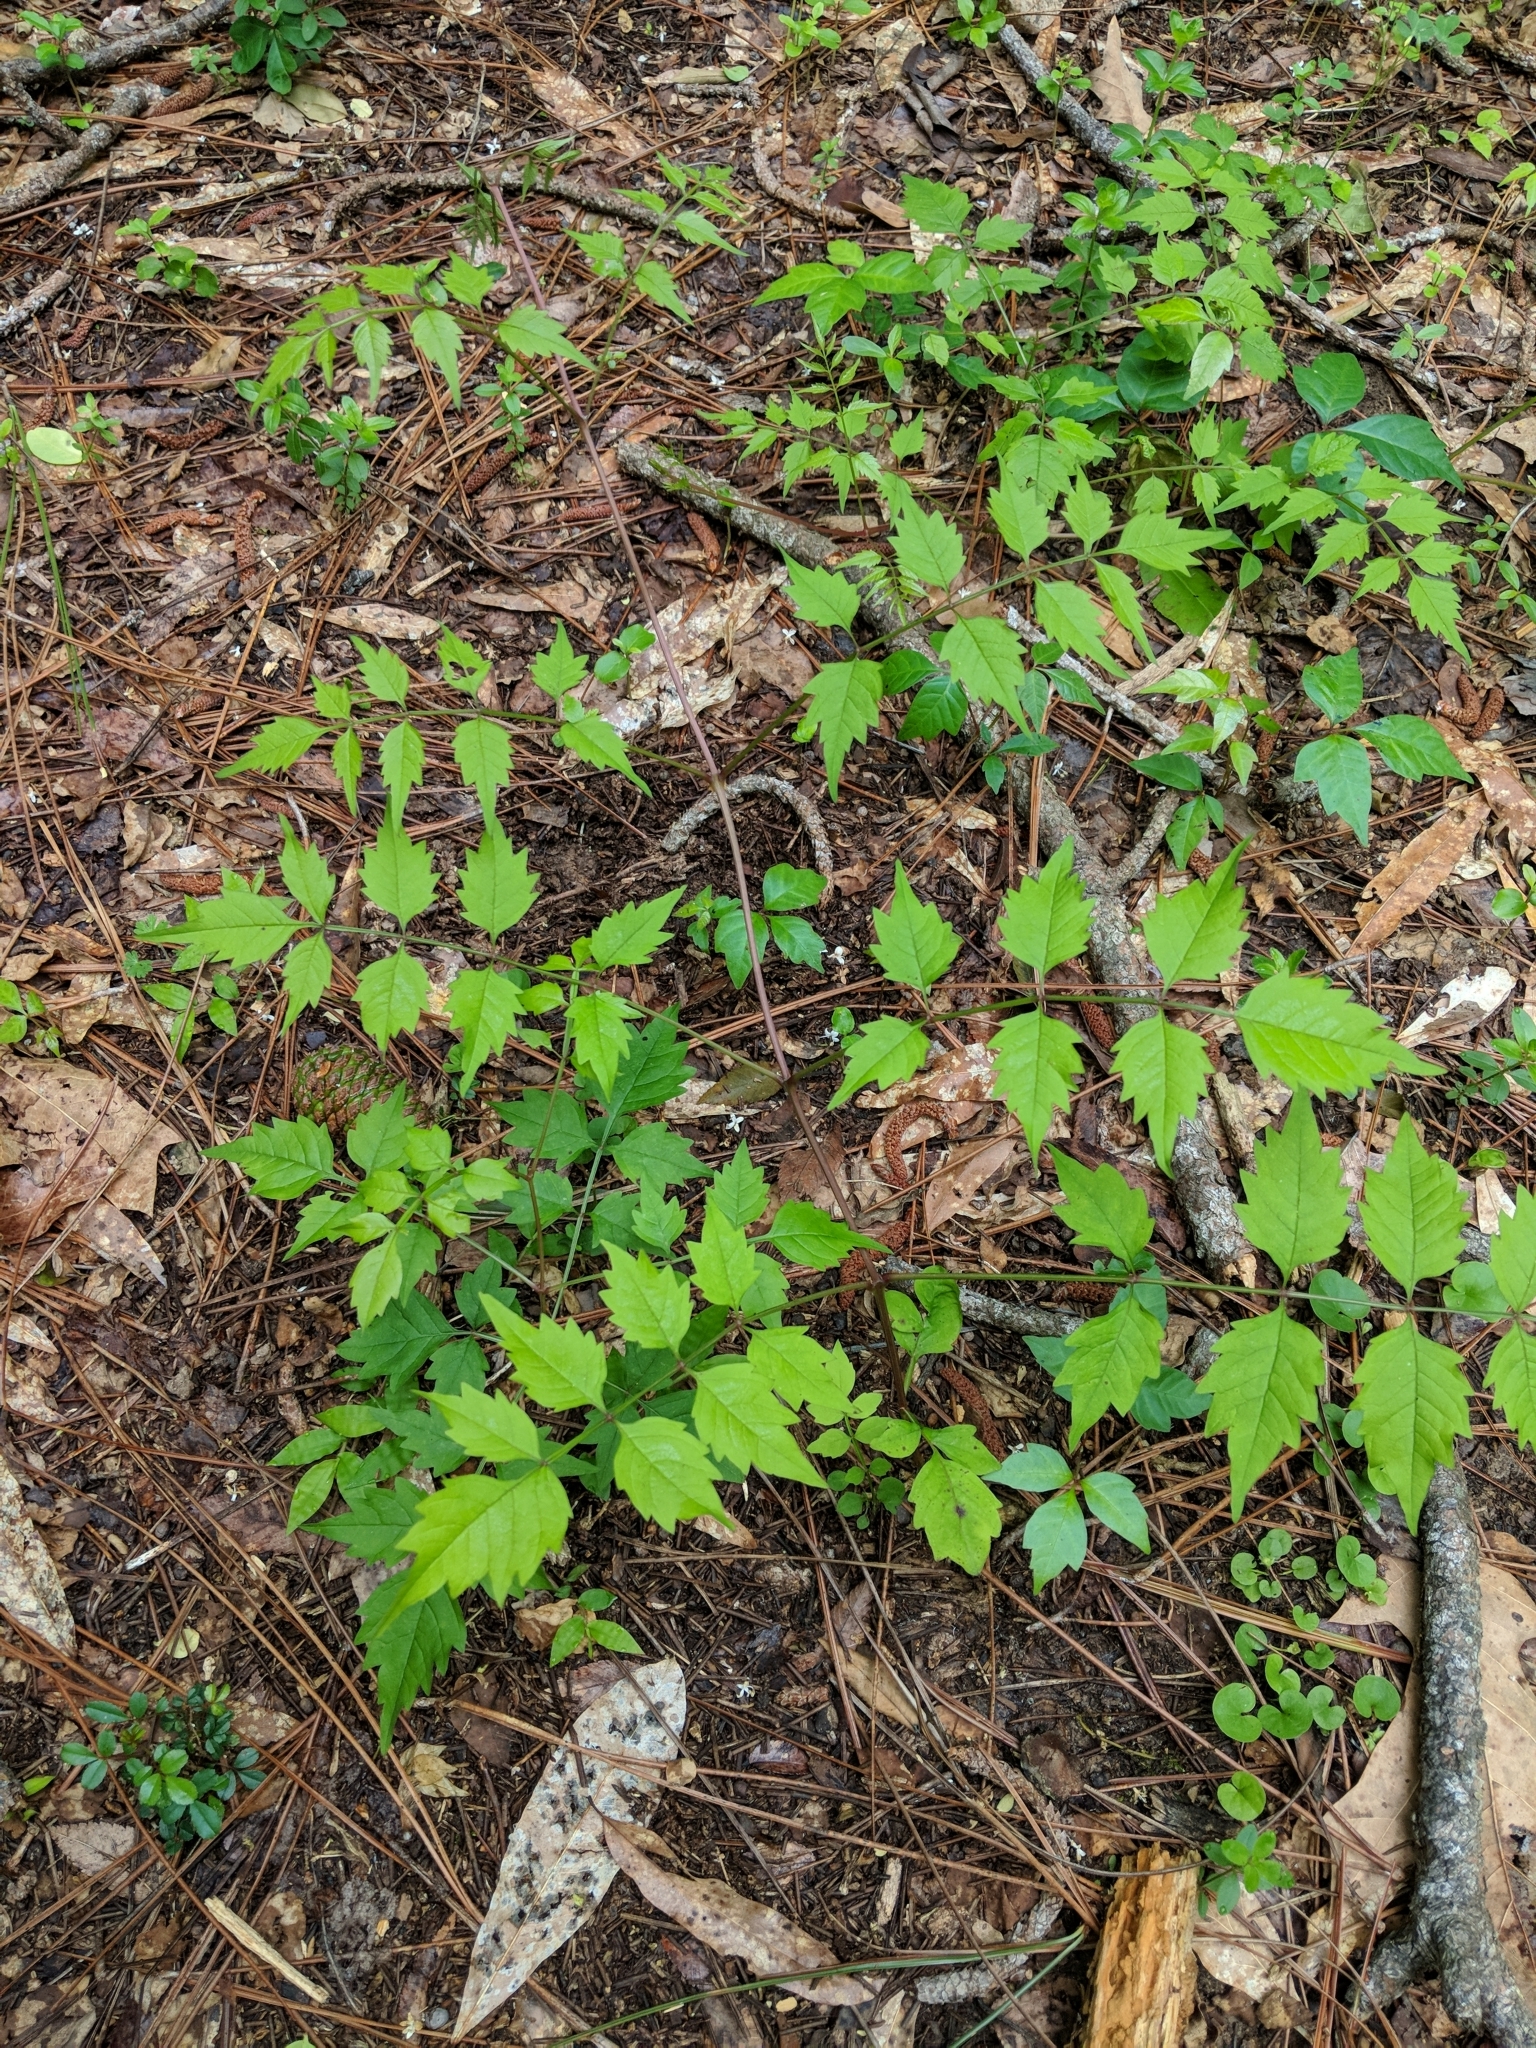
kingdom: Plantae
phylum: Tracheophyta
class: Magnoliopsida
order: Lamiales
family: Bignoniaceae
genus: Campsis
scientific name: Campsis radicans
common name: Trumpet-creeper
